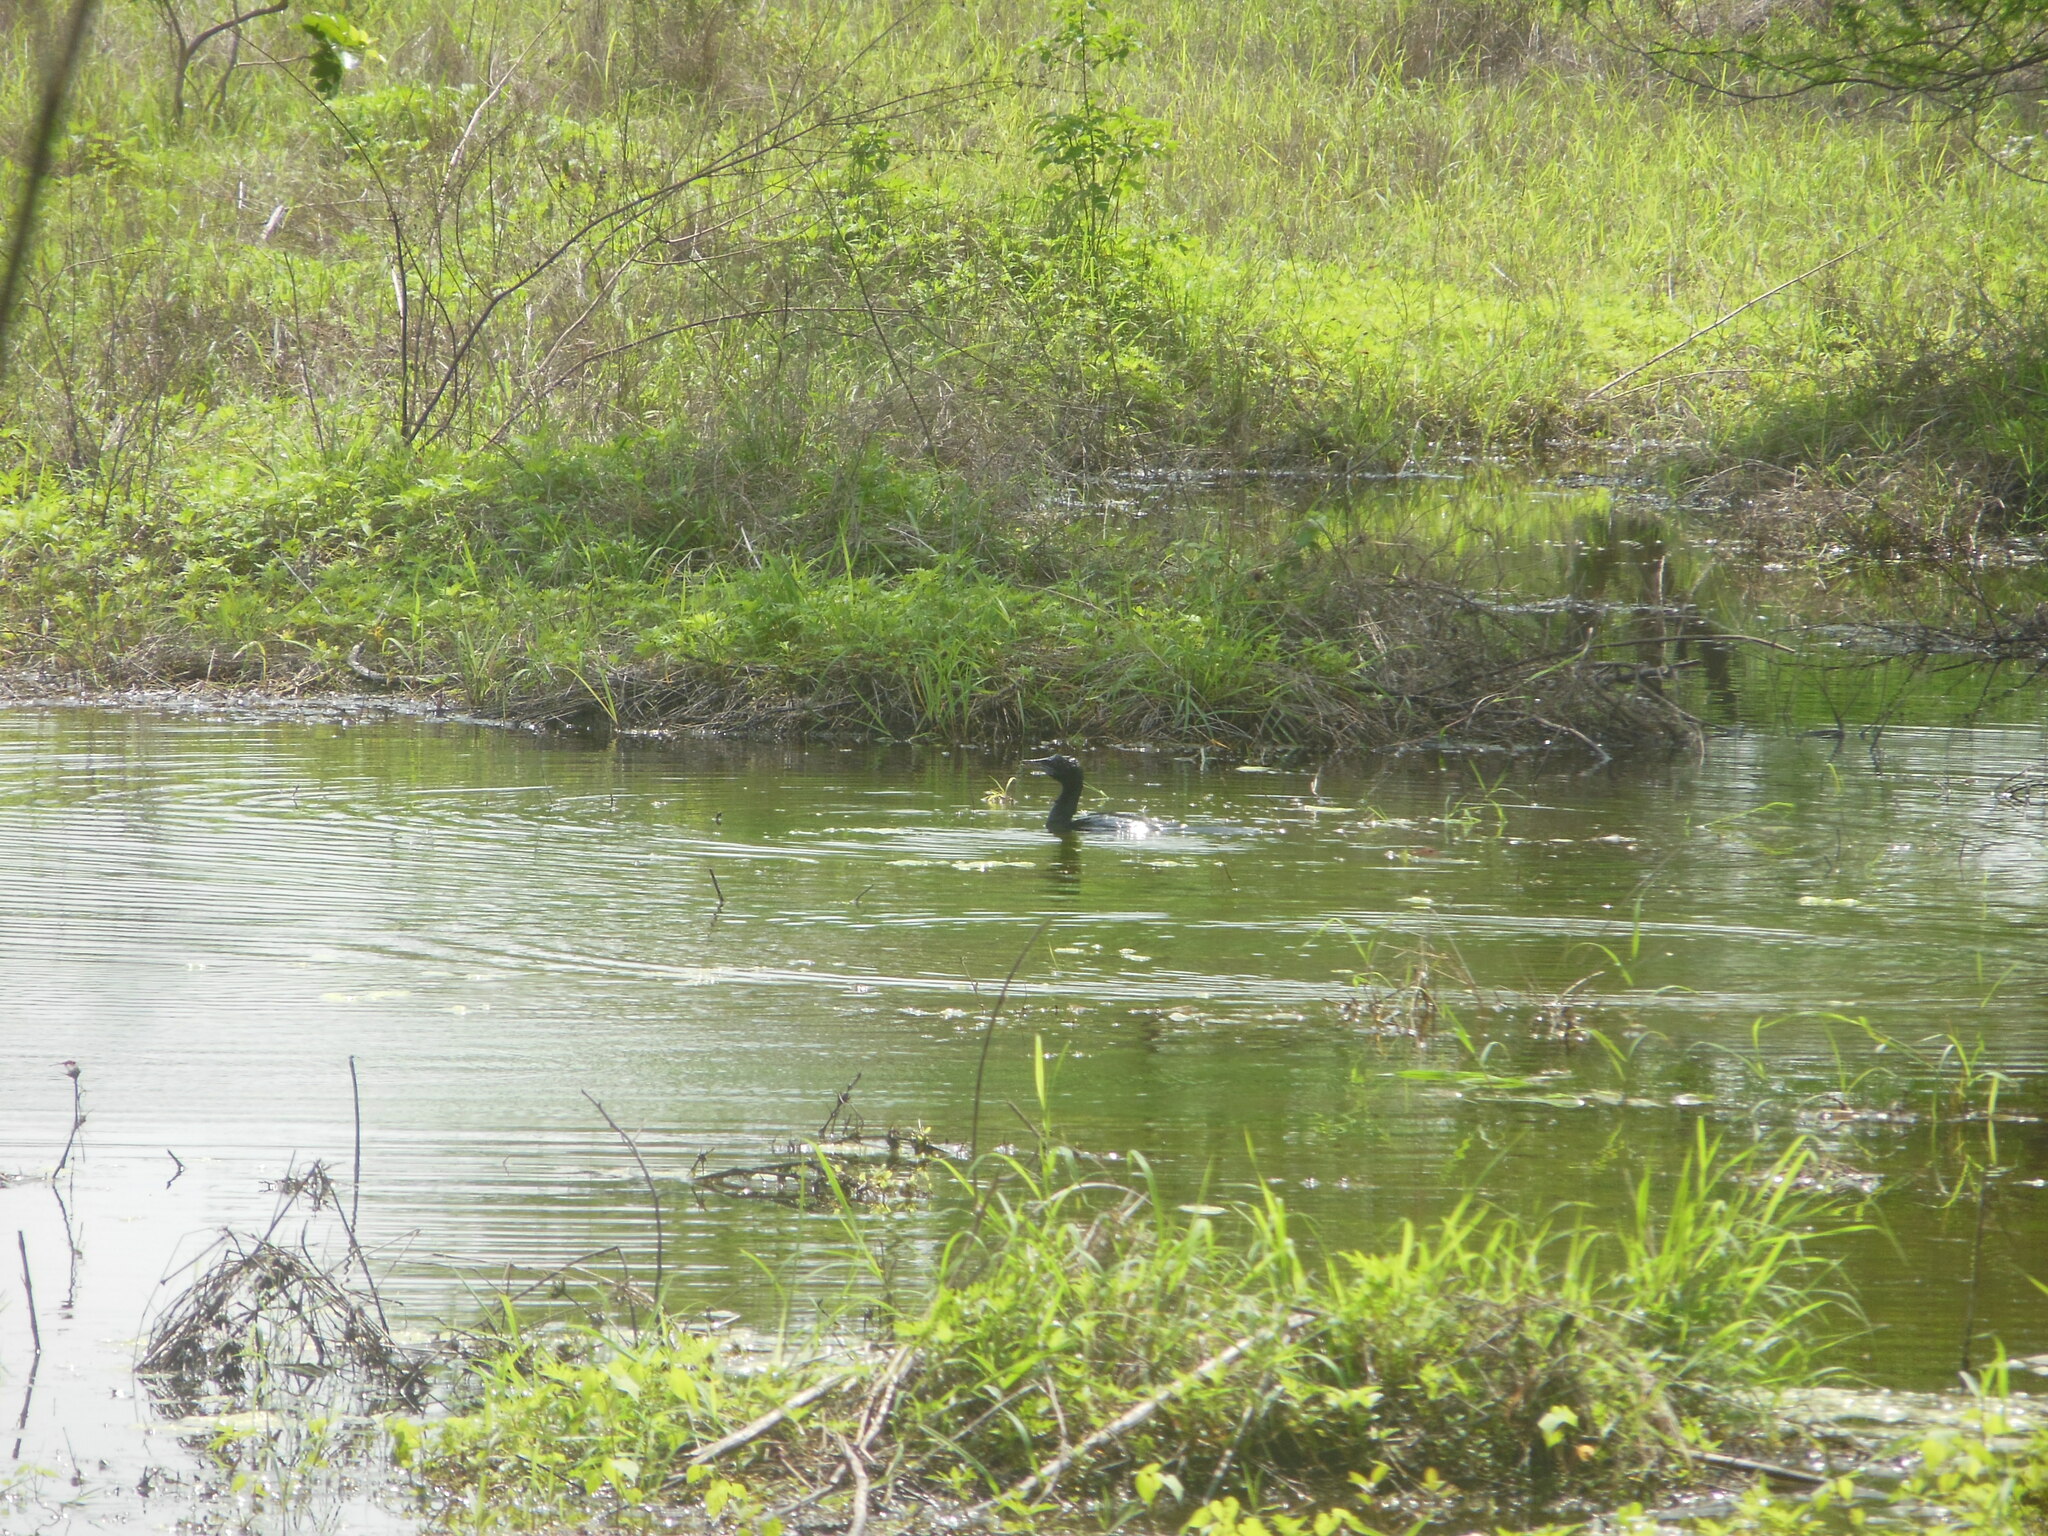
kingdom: Animalia
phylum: Chordata
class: Aves
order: Suliformes
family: Phalacrocoracidae
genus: Microcarbo
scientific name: Microcarbo niger
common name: Little cormorant
